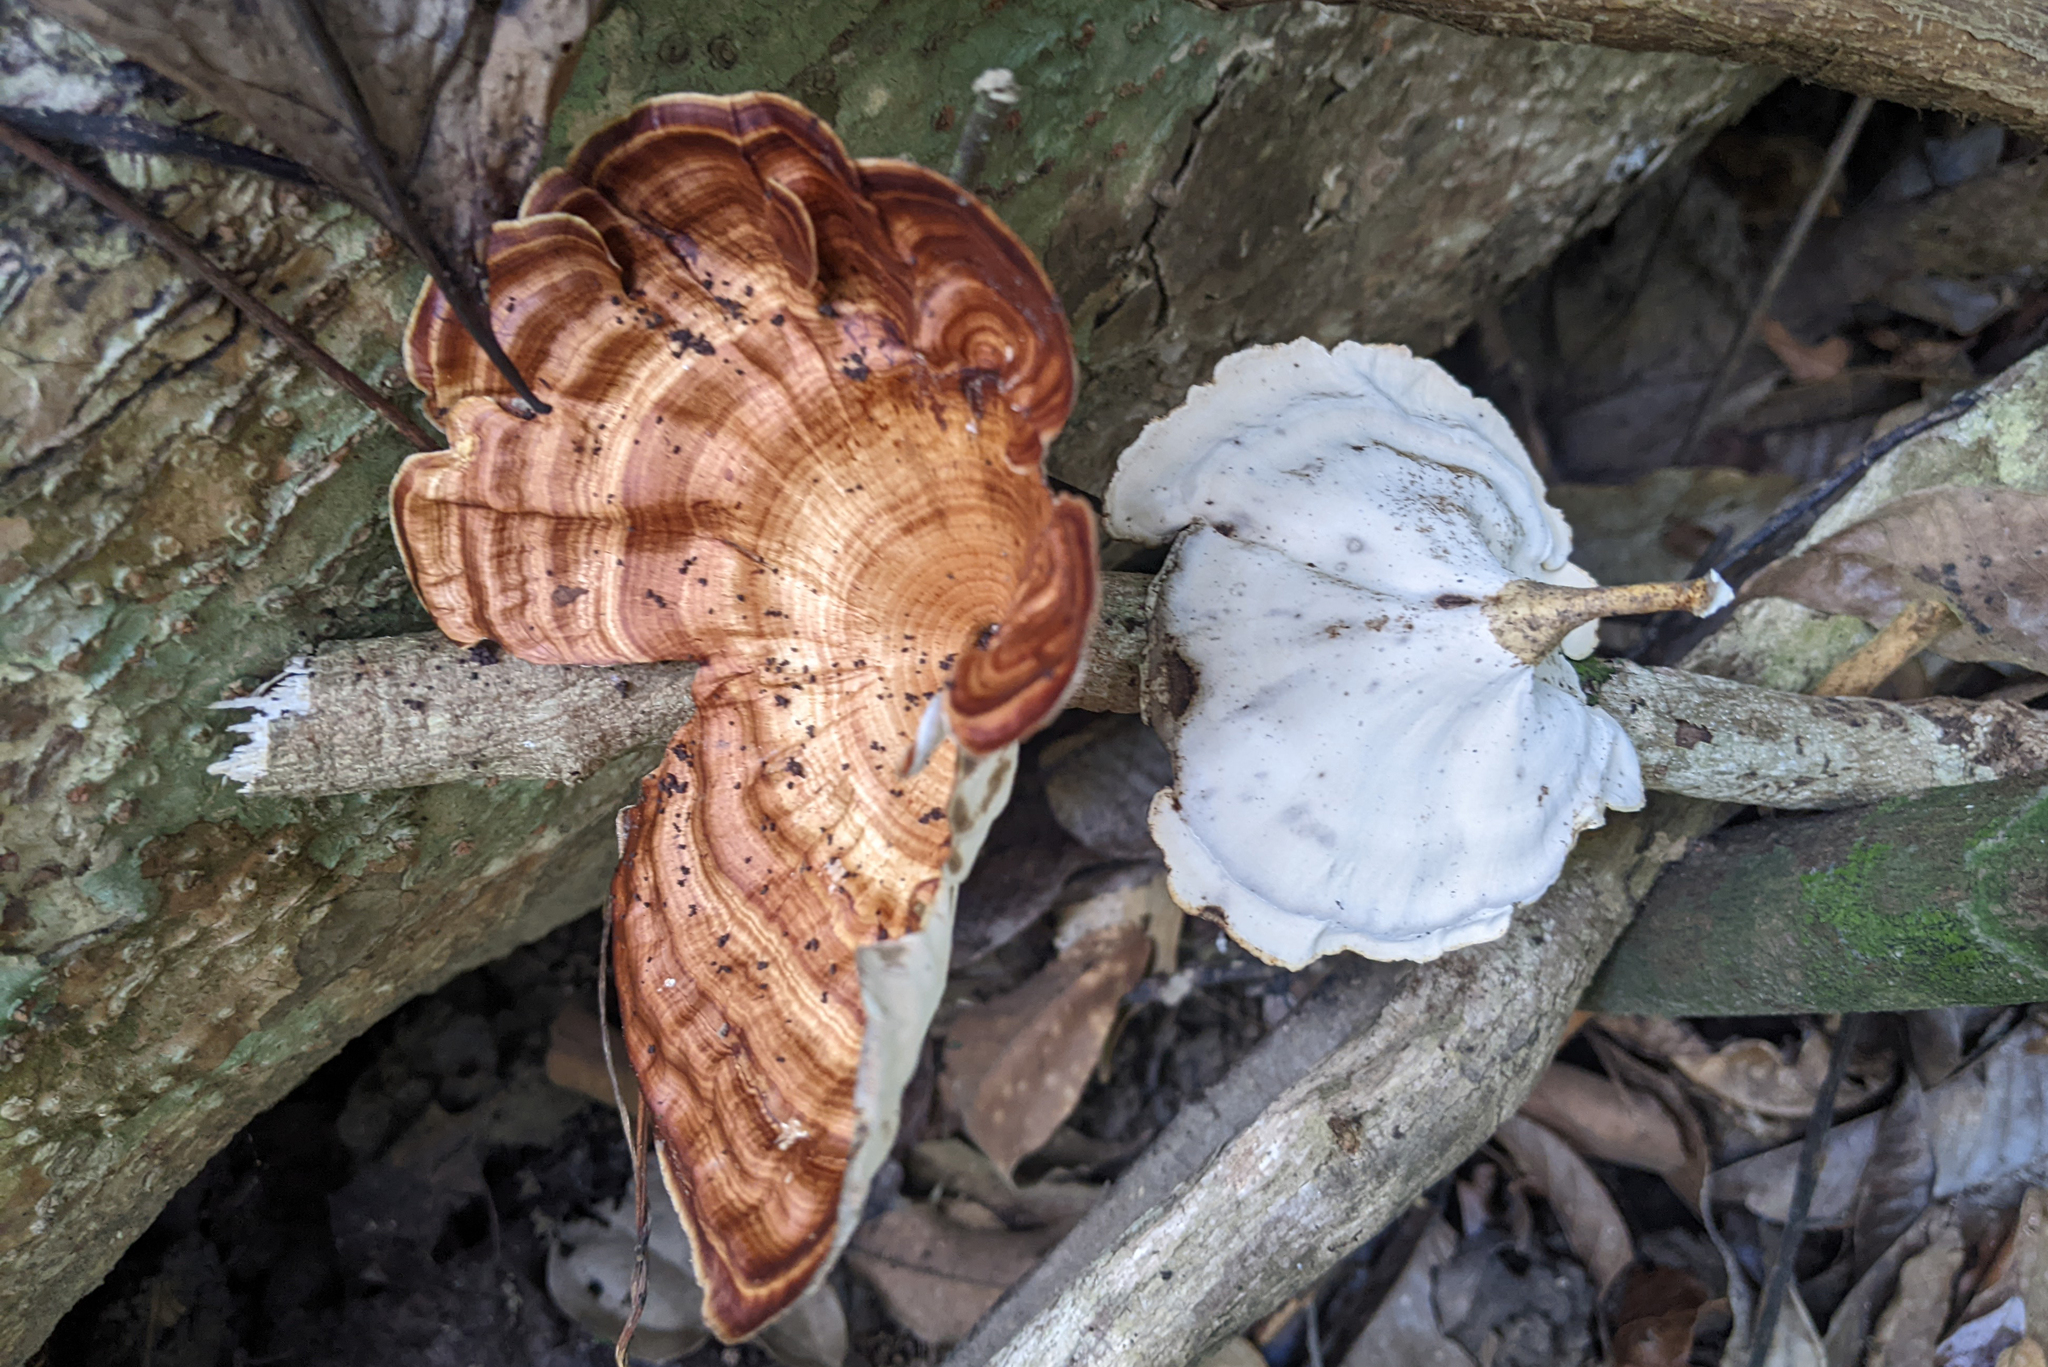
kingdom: Fungi
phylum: Basidiomycota
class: Agaricomycetes
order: Polyporales
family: Polyporaceae
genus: Microporus
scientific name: Microporus xanthopus
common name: Yellow-stemmed micropore
